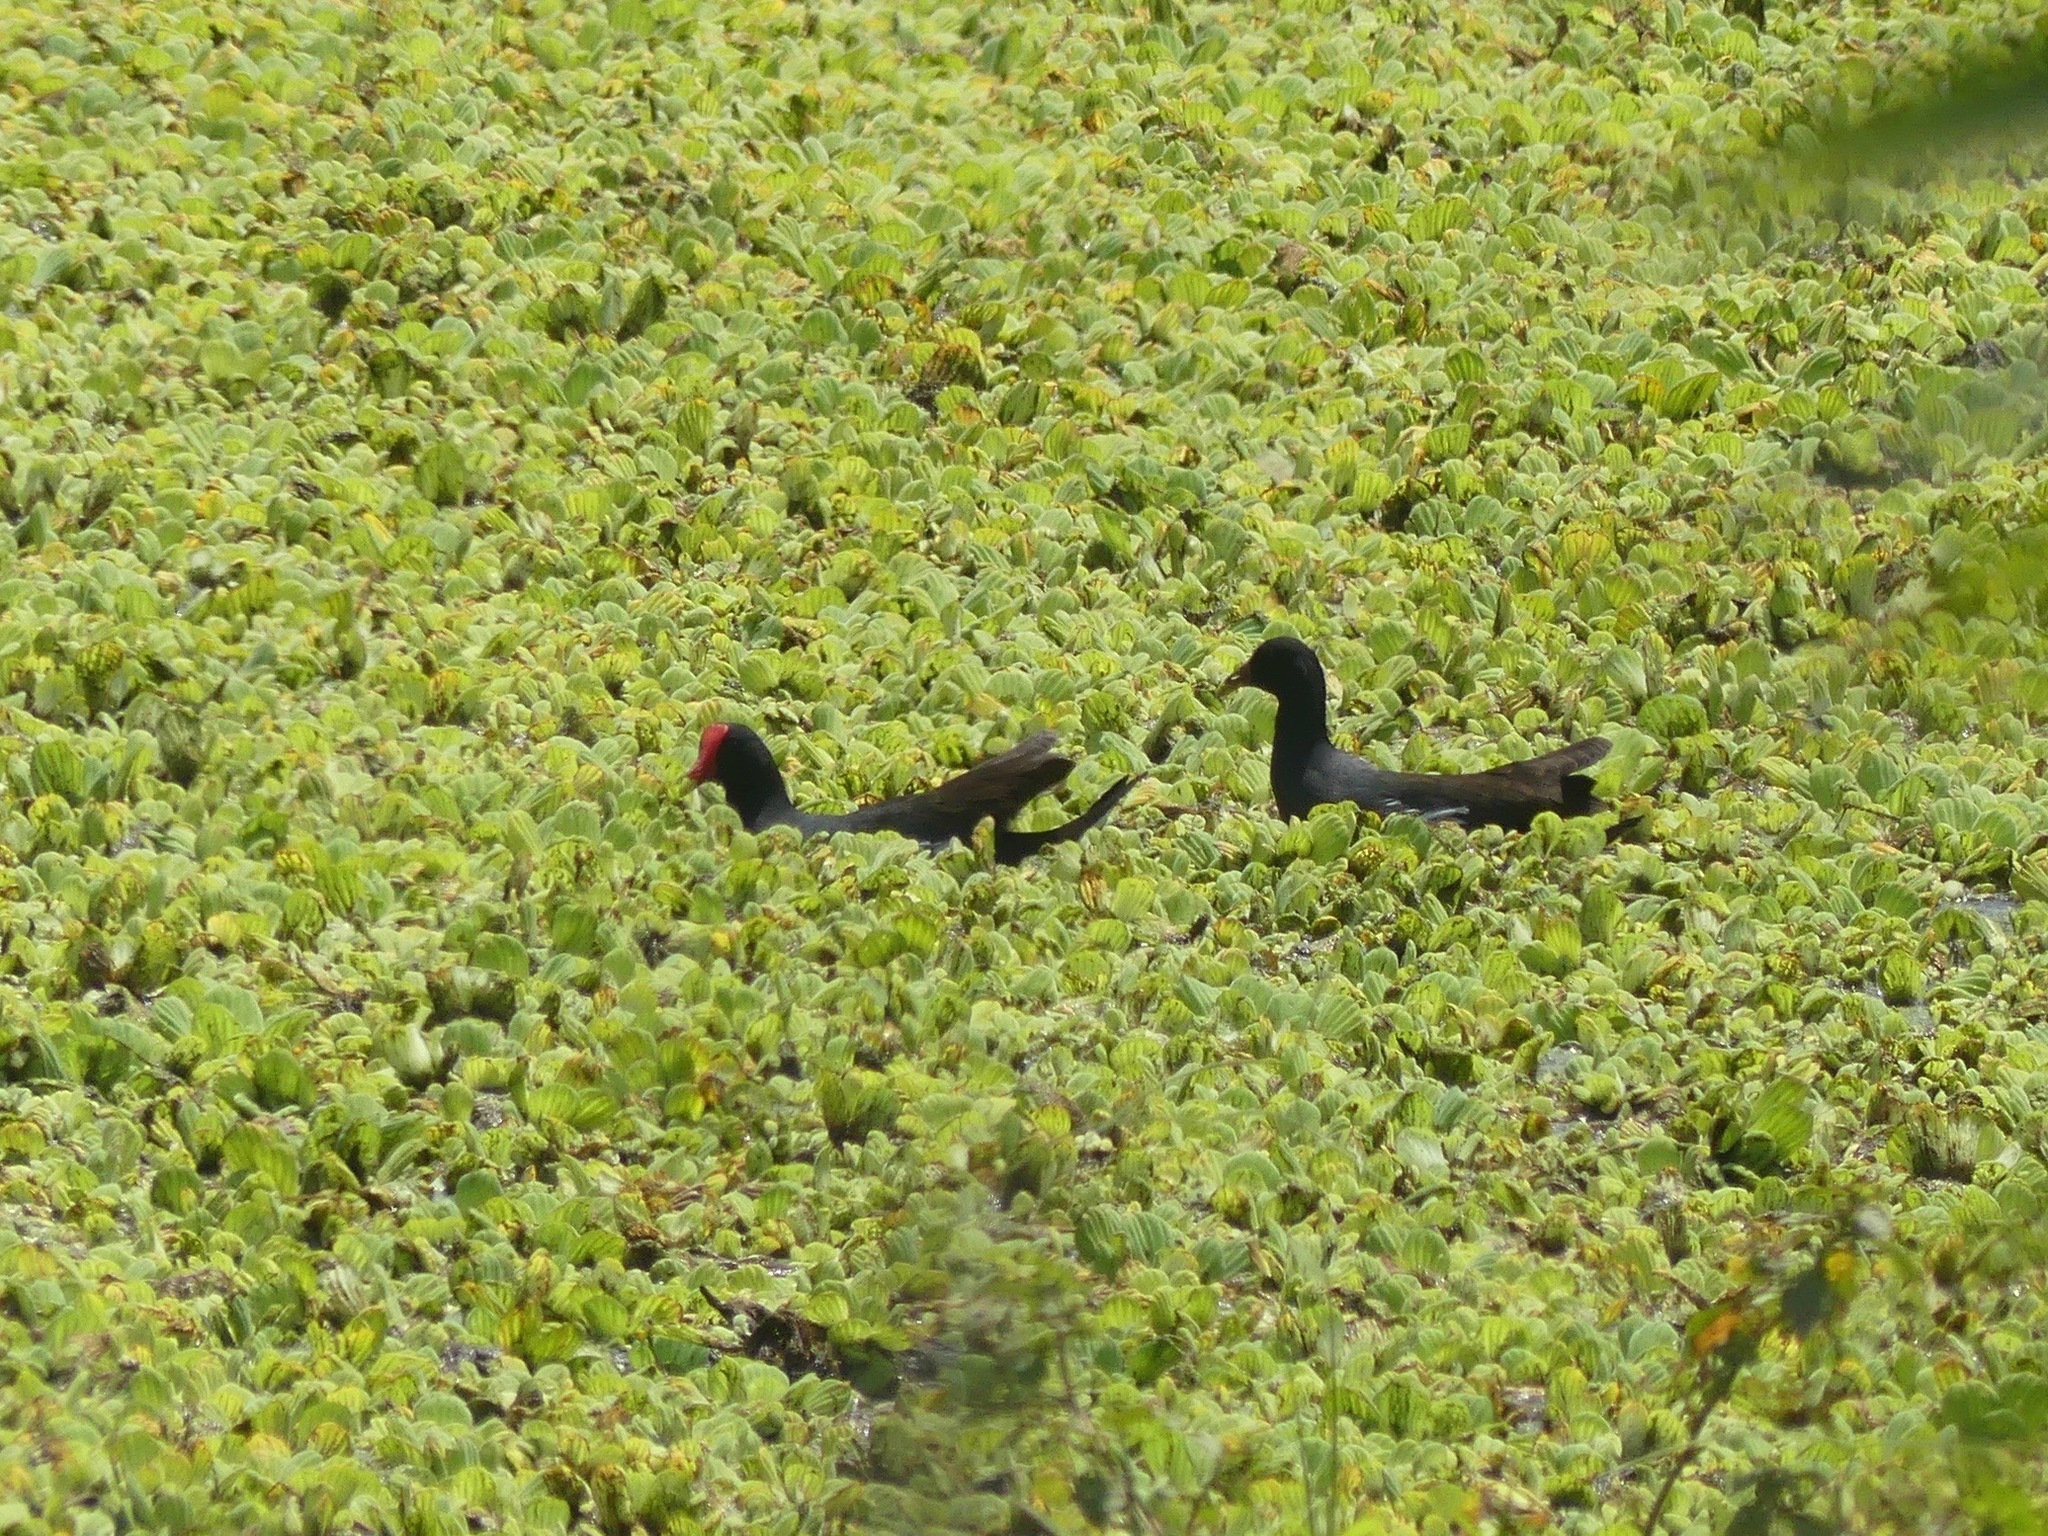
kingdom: Animalia
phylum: Chordata
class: Aves
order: Gruiformes
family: Rallidae
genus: Gallinula
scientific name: Gallinula chloropus
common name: Common moorhen
